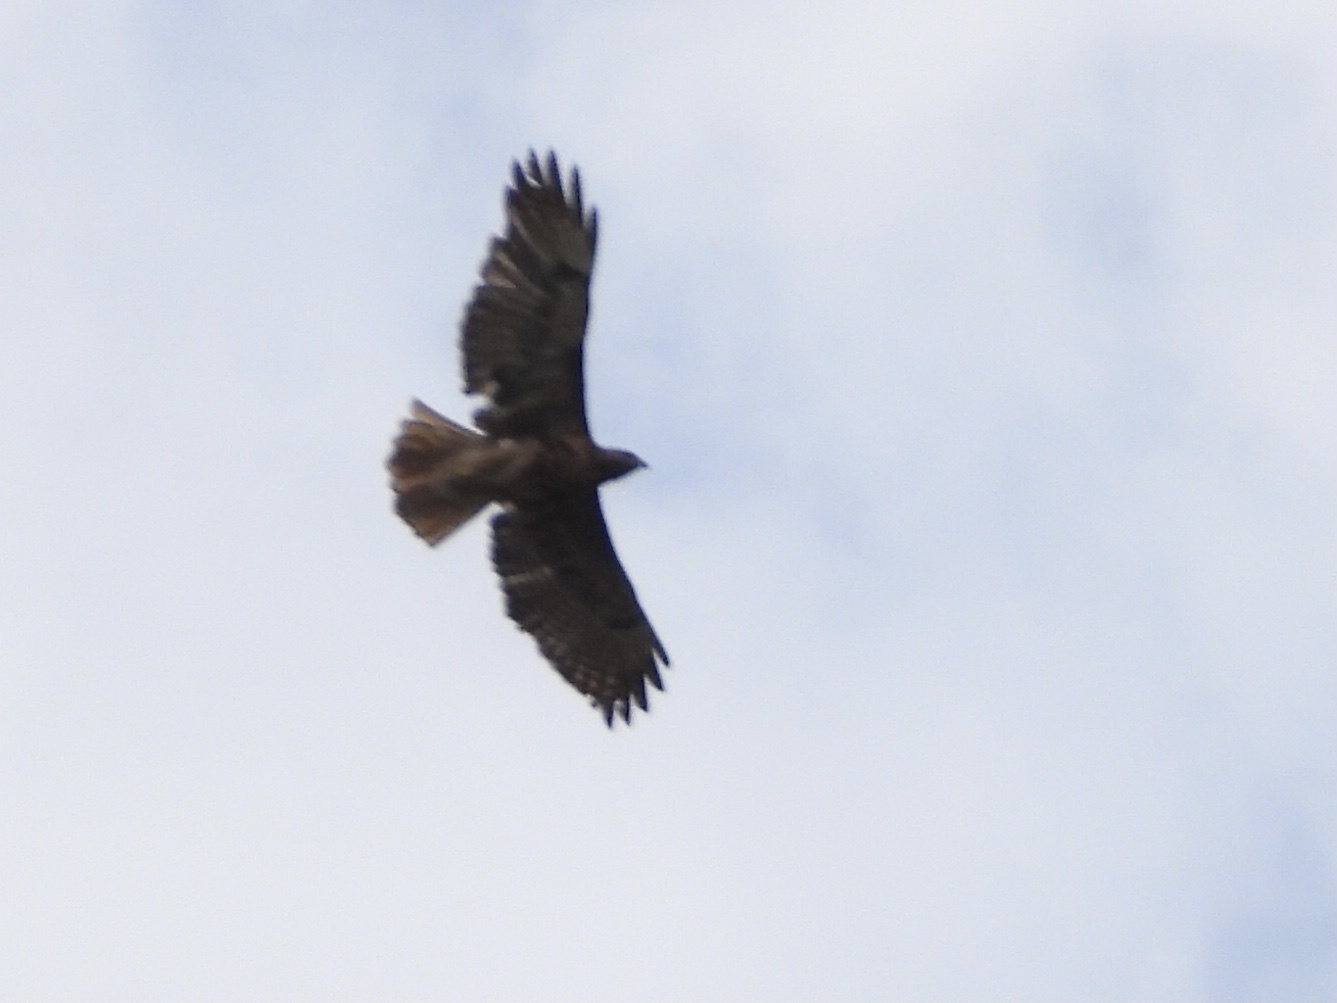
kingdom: Animalia
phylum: Chordata
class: Aves
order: Accipitriformes
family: Accipitridae
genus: Buteo
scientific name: Buteo jamaicensis
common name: Red-tailed hawk
